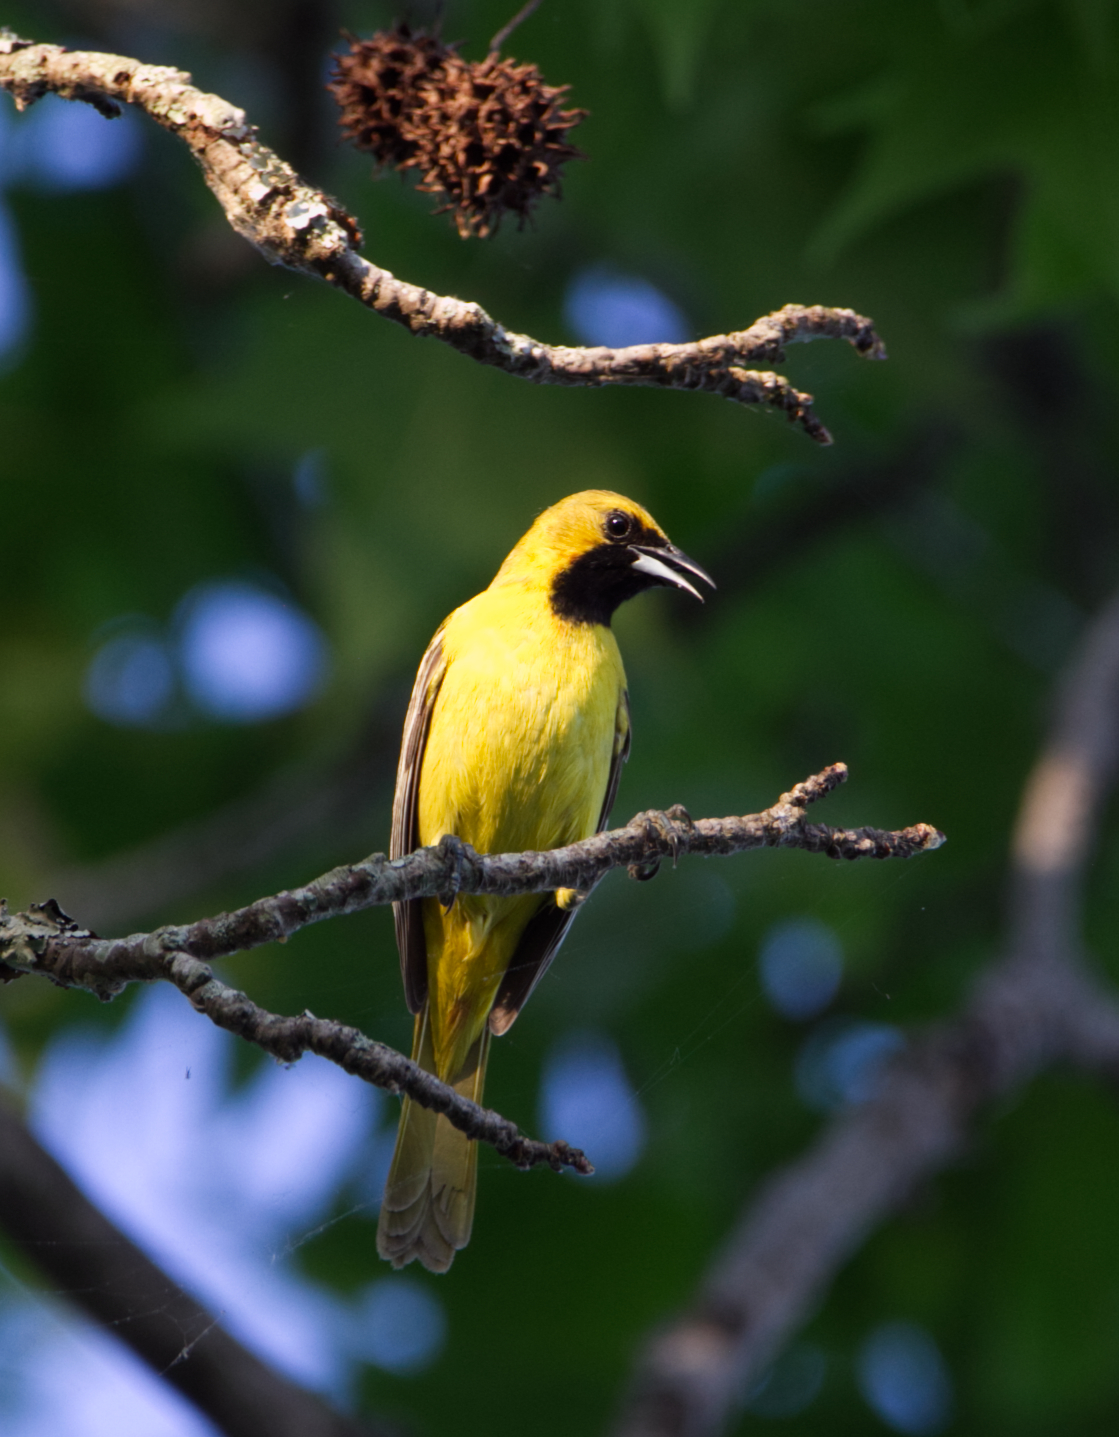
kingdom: Animalia
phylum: Chordata
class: Aves
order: Passeriformes
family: Icteridae
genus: Icterus
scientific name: Icterus spurius
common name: Orchard oriole
